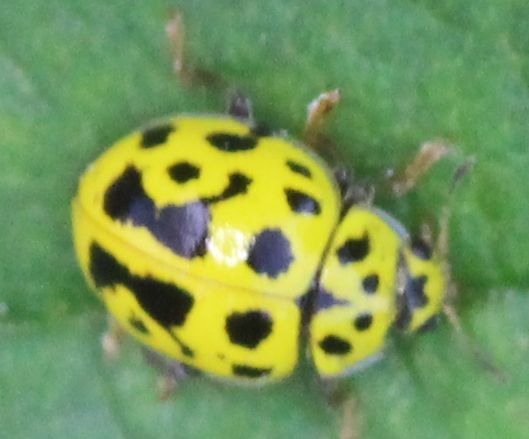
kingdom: Animalia
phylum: Arthropoda
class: Insecta
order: Coleoptera
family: Coccinellidae
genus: Psyllobora
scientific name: Psyllobora vigintiduopunctata
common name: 22-spot ladybird
